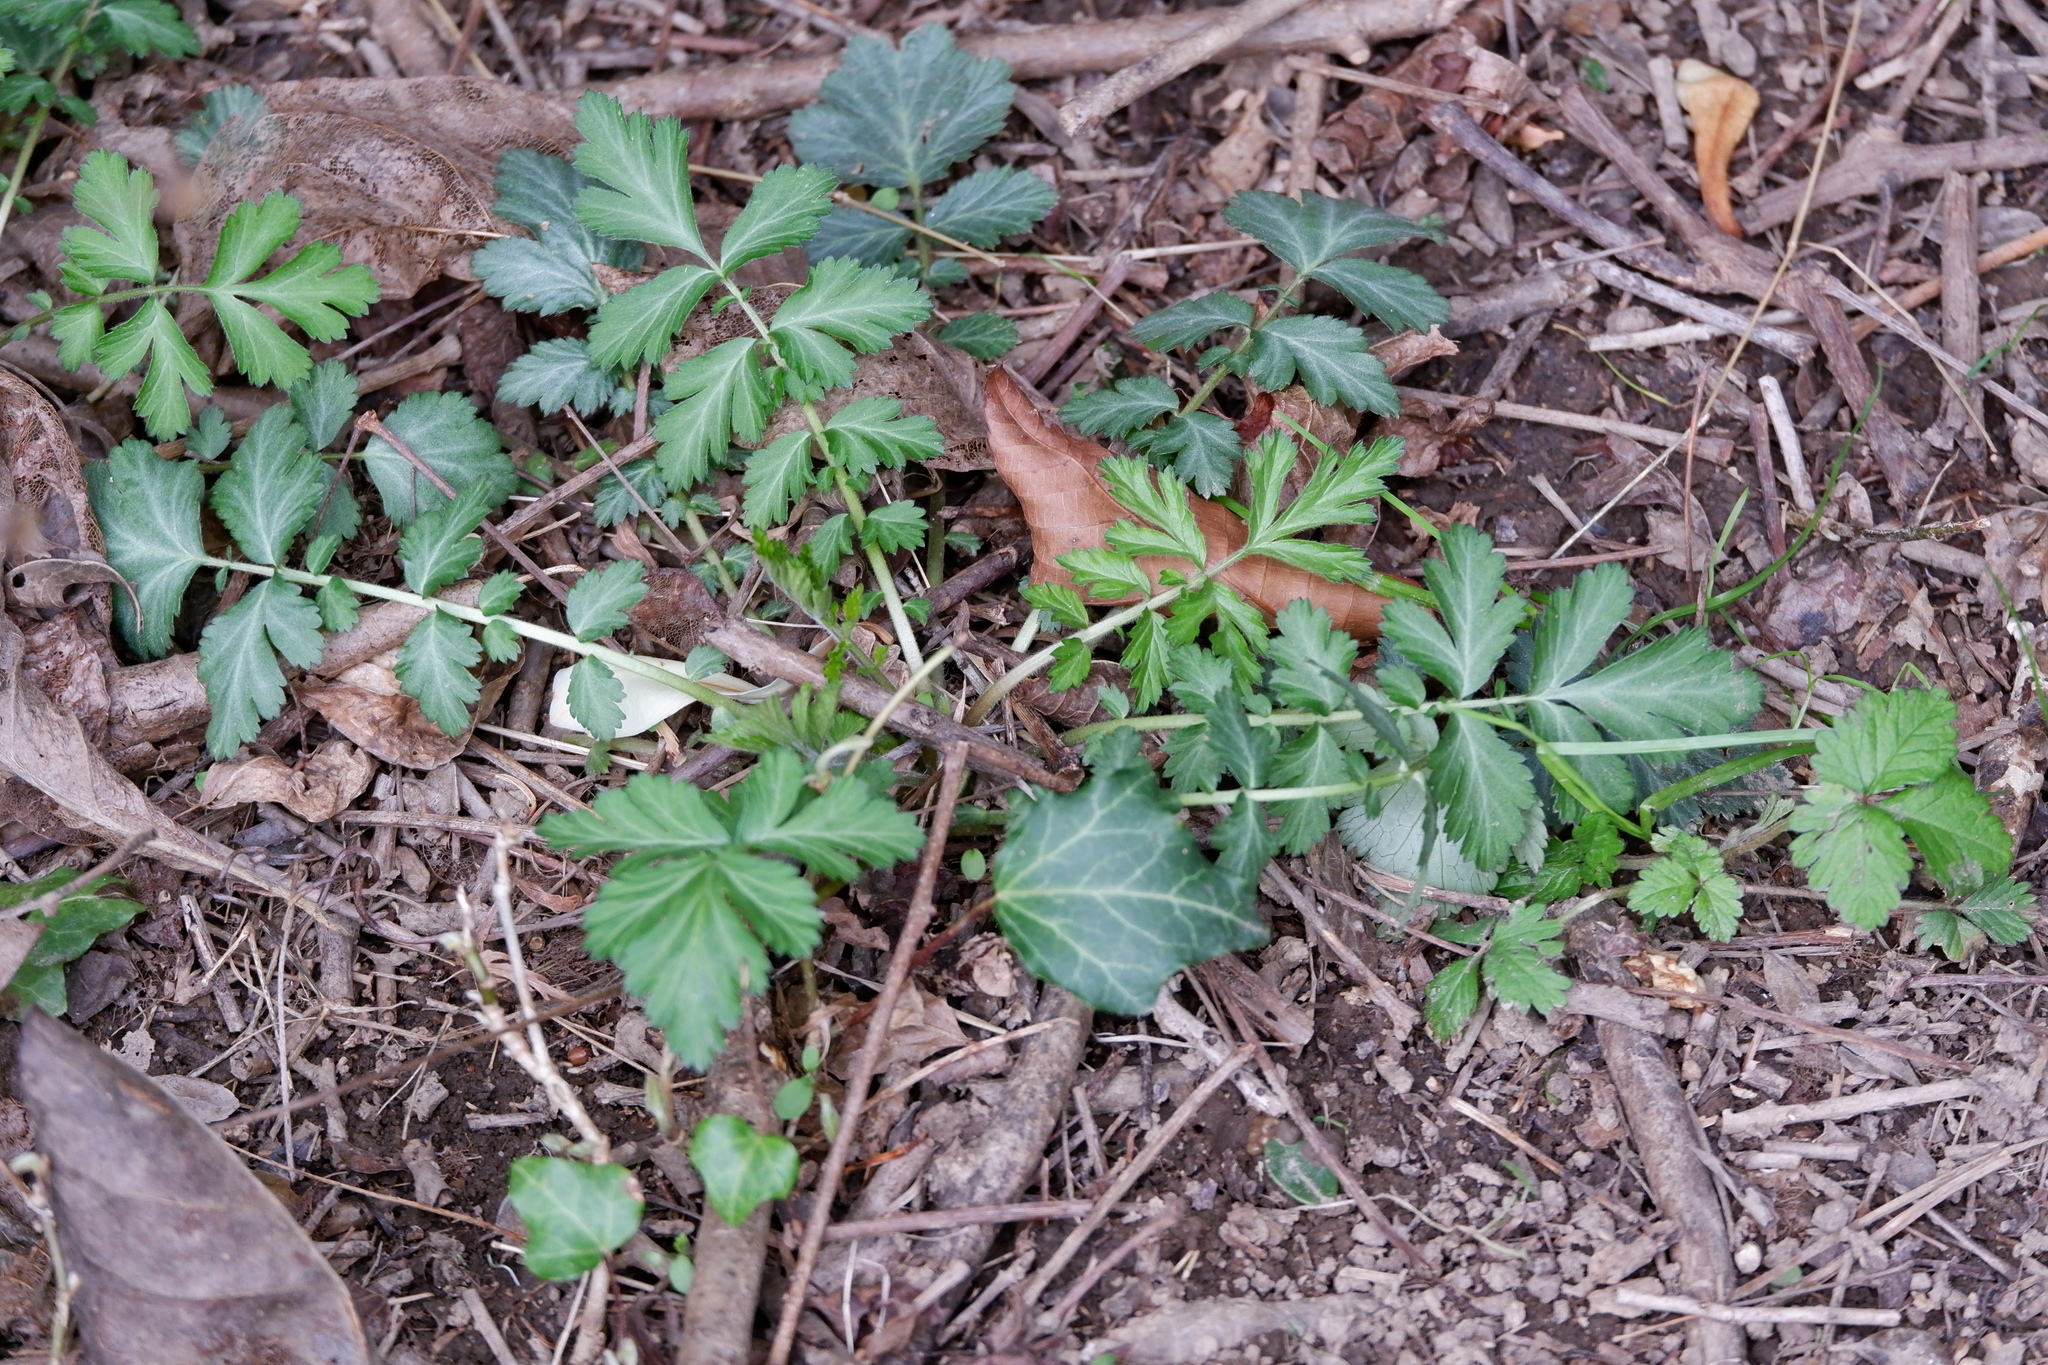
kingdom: Plantae
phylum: Tracheophyta
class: Magnoliopsida
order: Rosales
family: Rosaceae
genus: Geum
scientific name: Geum canadense
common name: White avens
